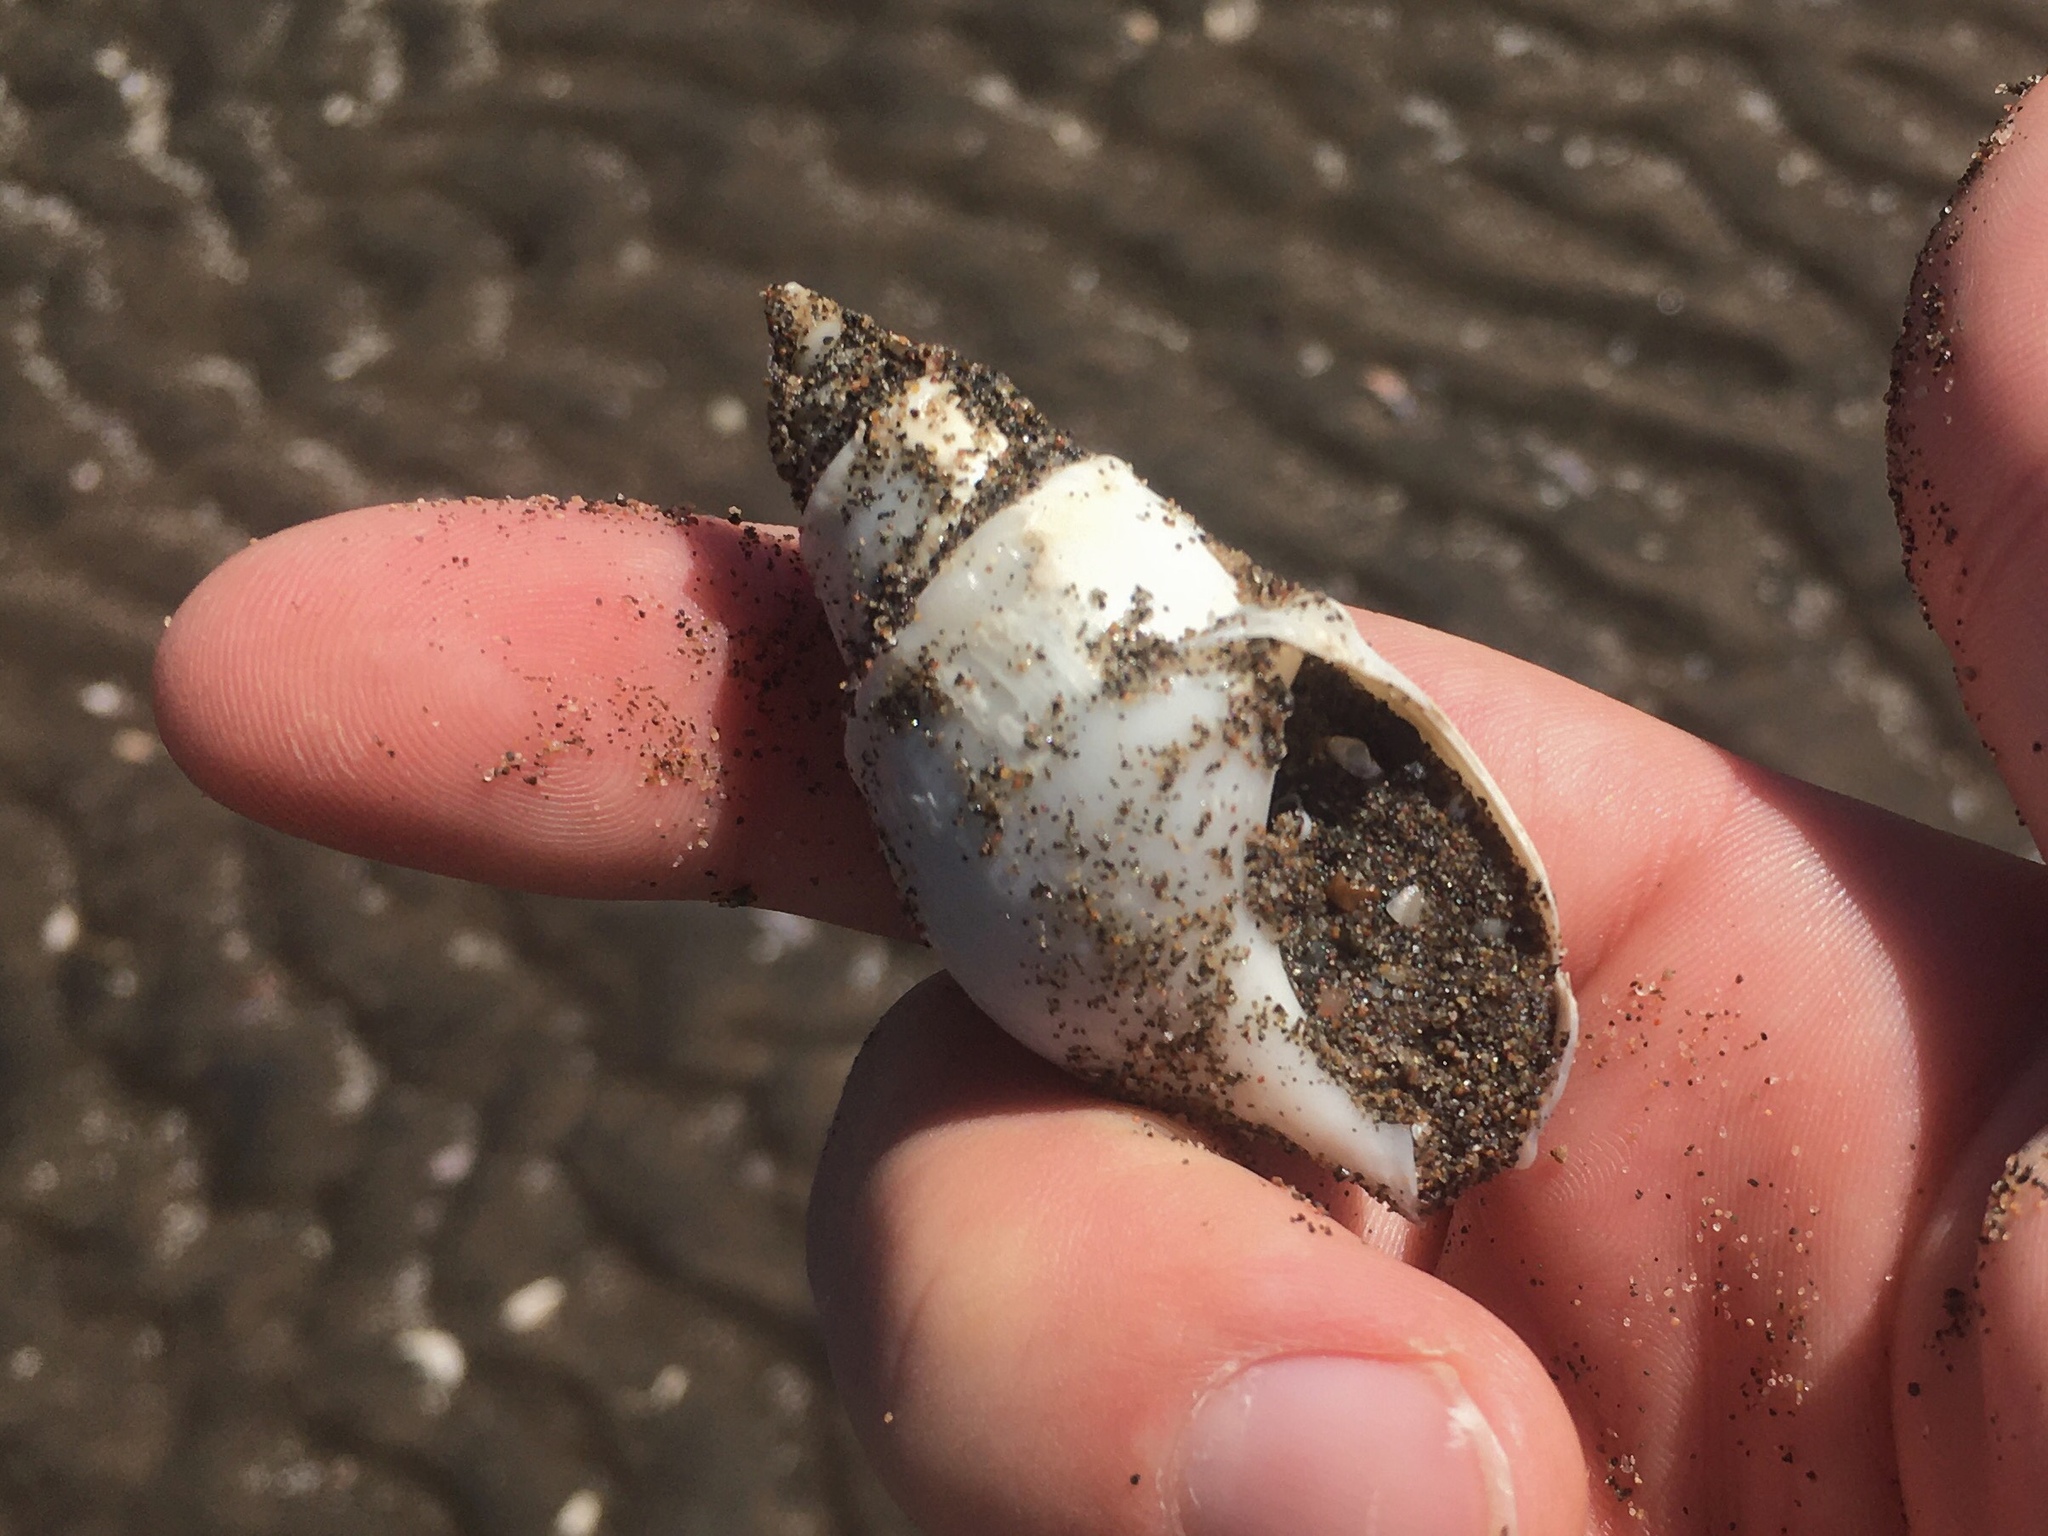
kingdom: Animalia
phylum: Mollusca
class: Gastropoda
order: Neogastropoda
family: Buccinanopsidae
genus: Buccinanops
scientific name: Buccinanops cochlidium
